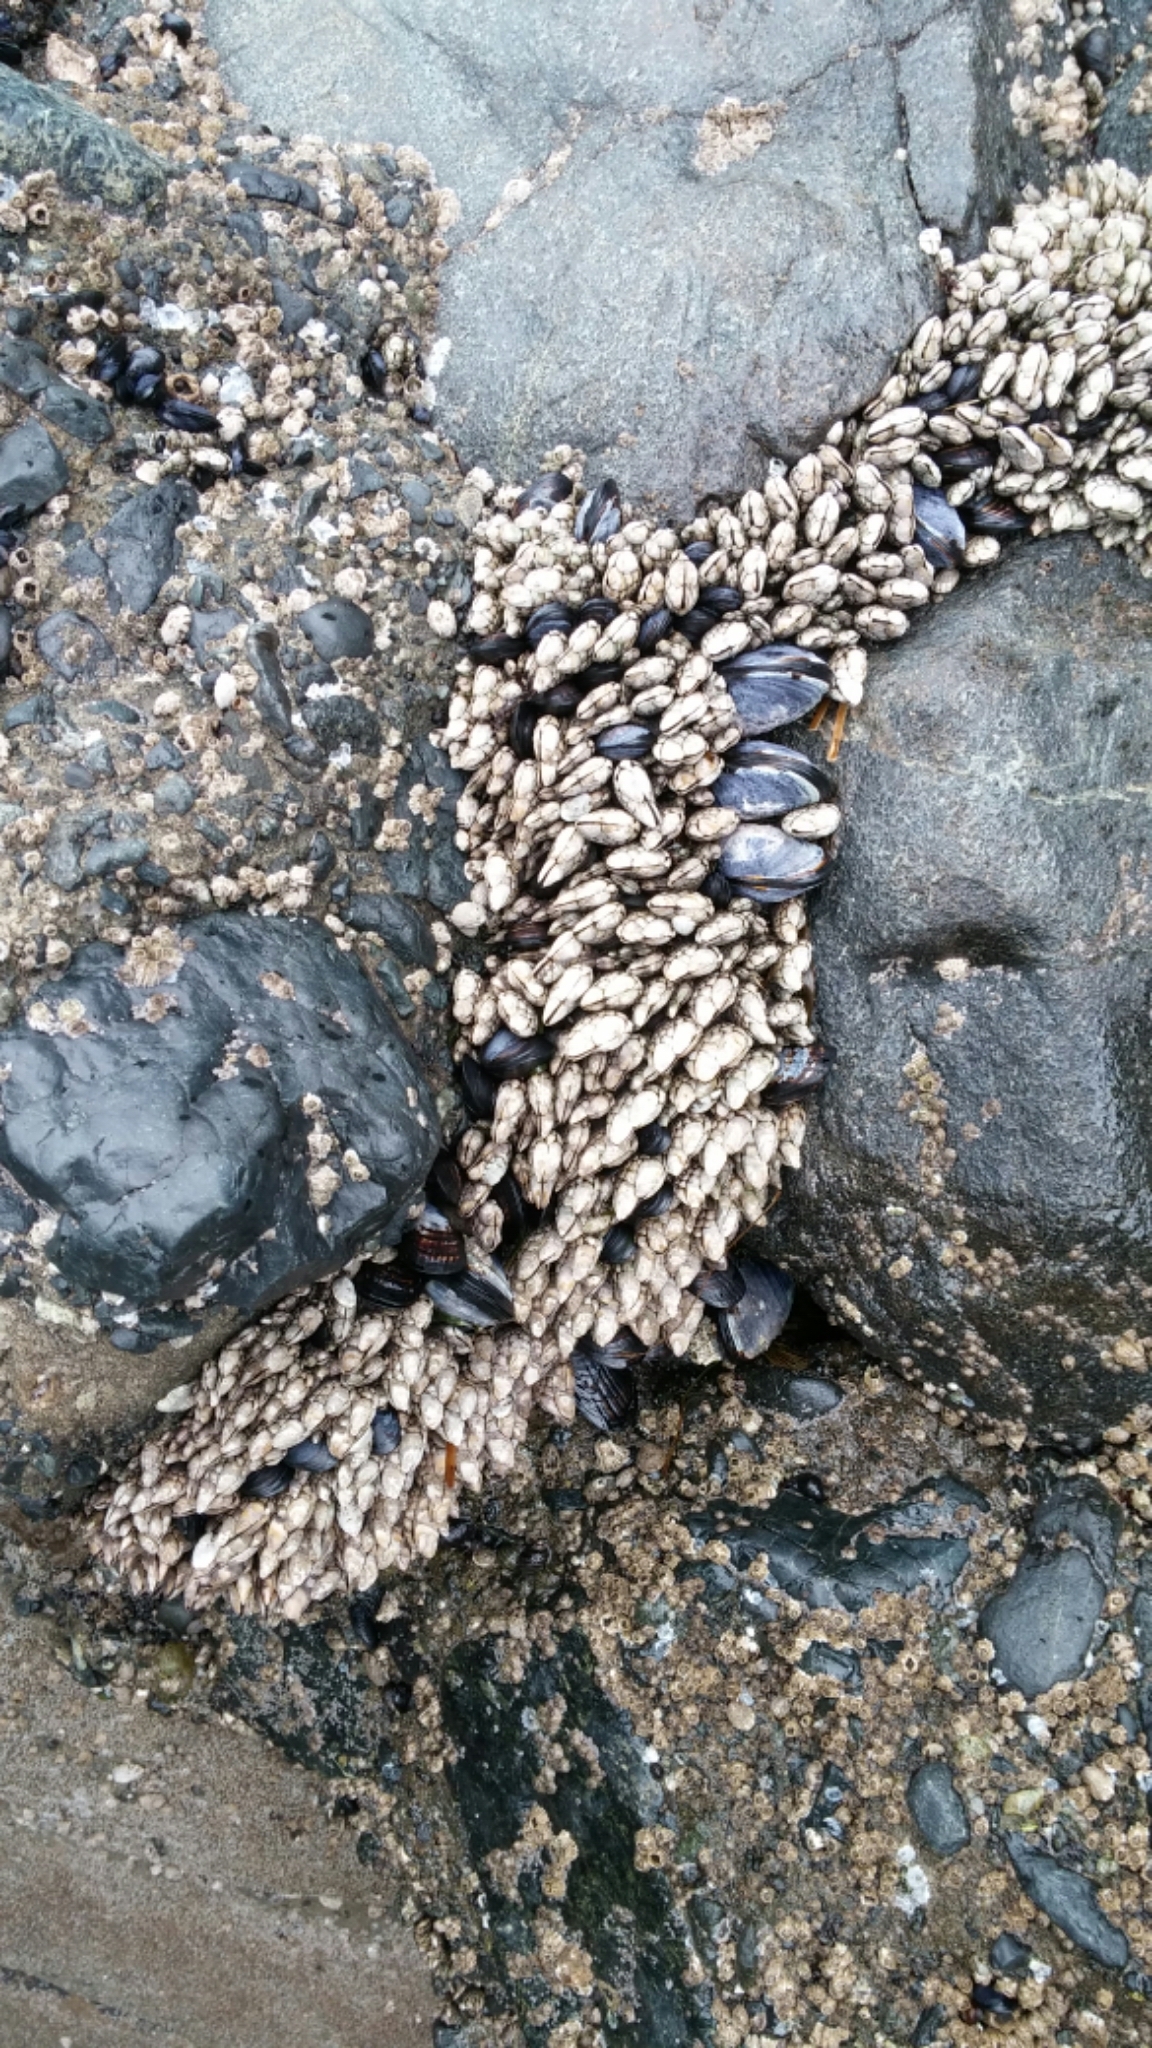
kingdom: Animalia
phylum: Arthropoda
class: Maxillopoda
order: Pedunculata
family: Pollicipedidae
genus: Pollicipes
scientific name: Pollicipes polymerus
